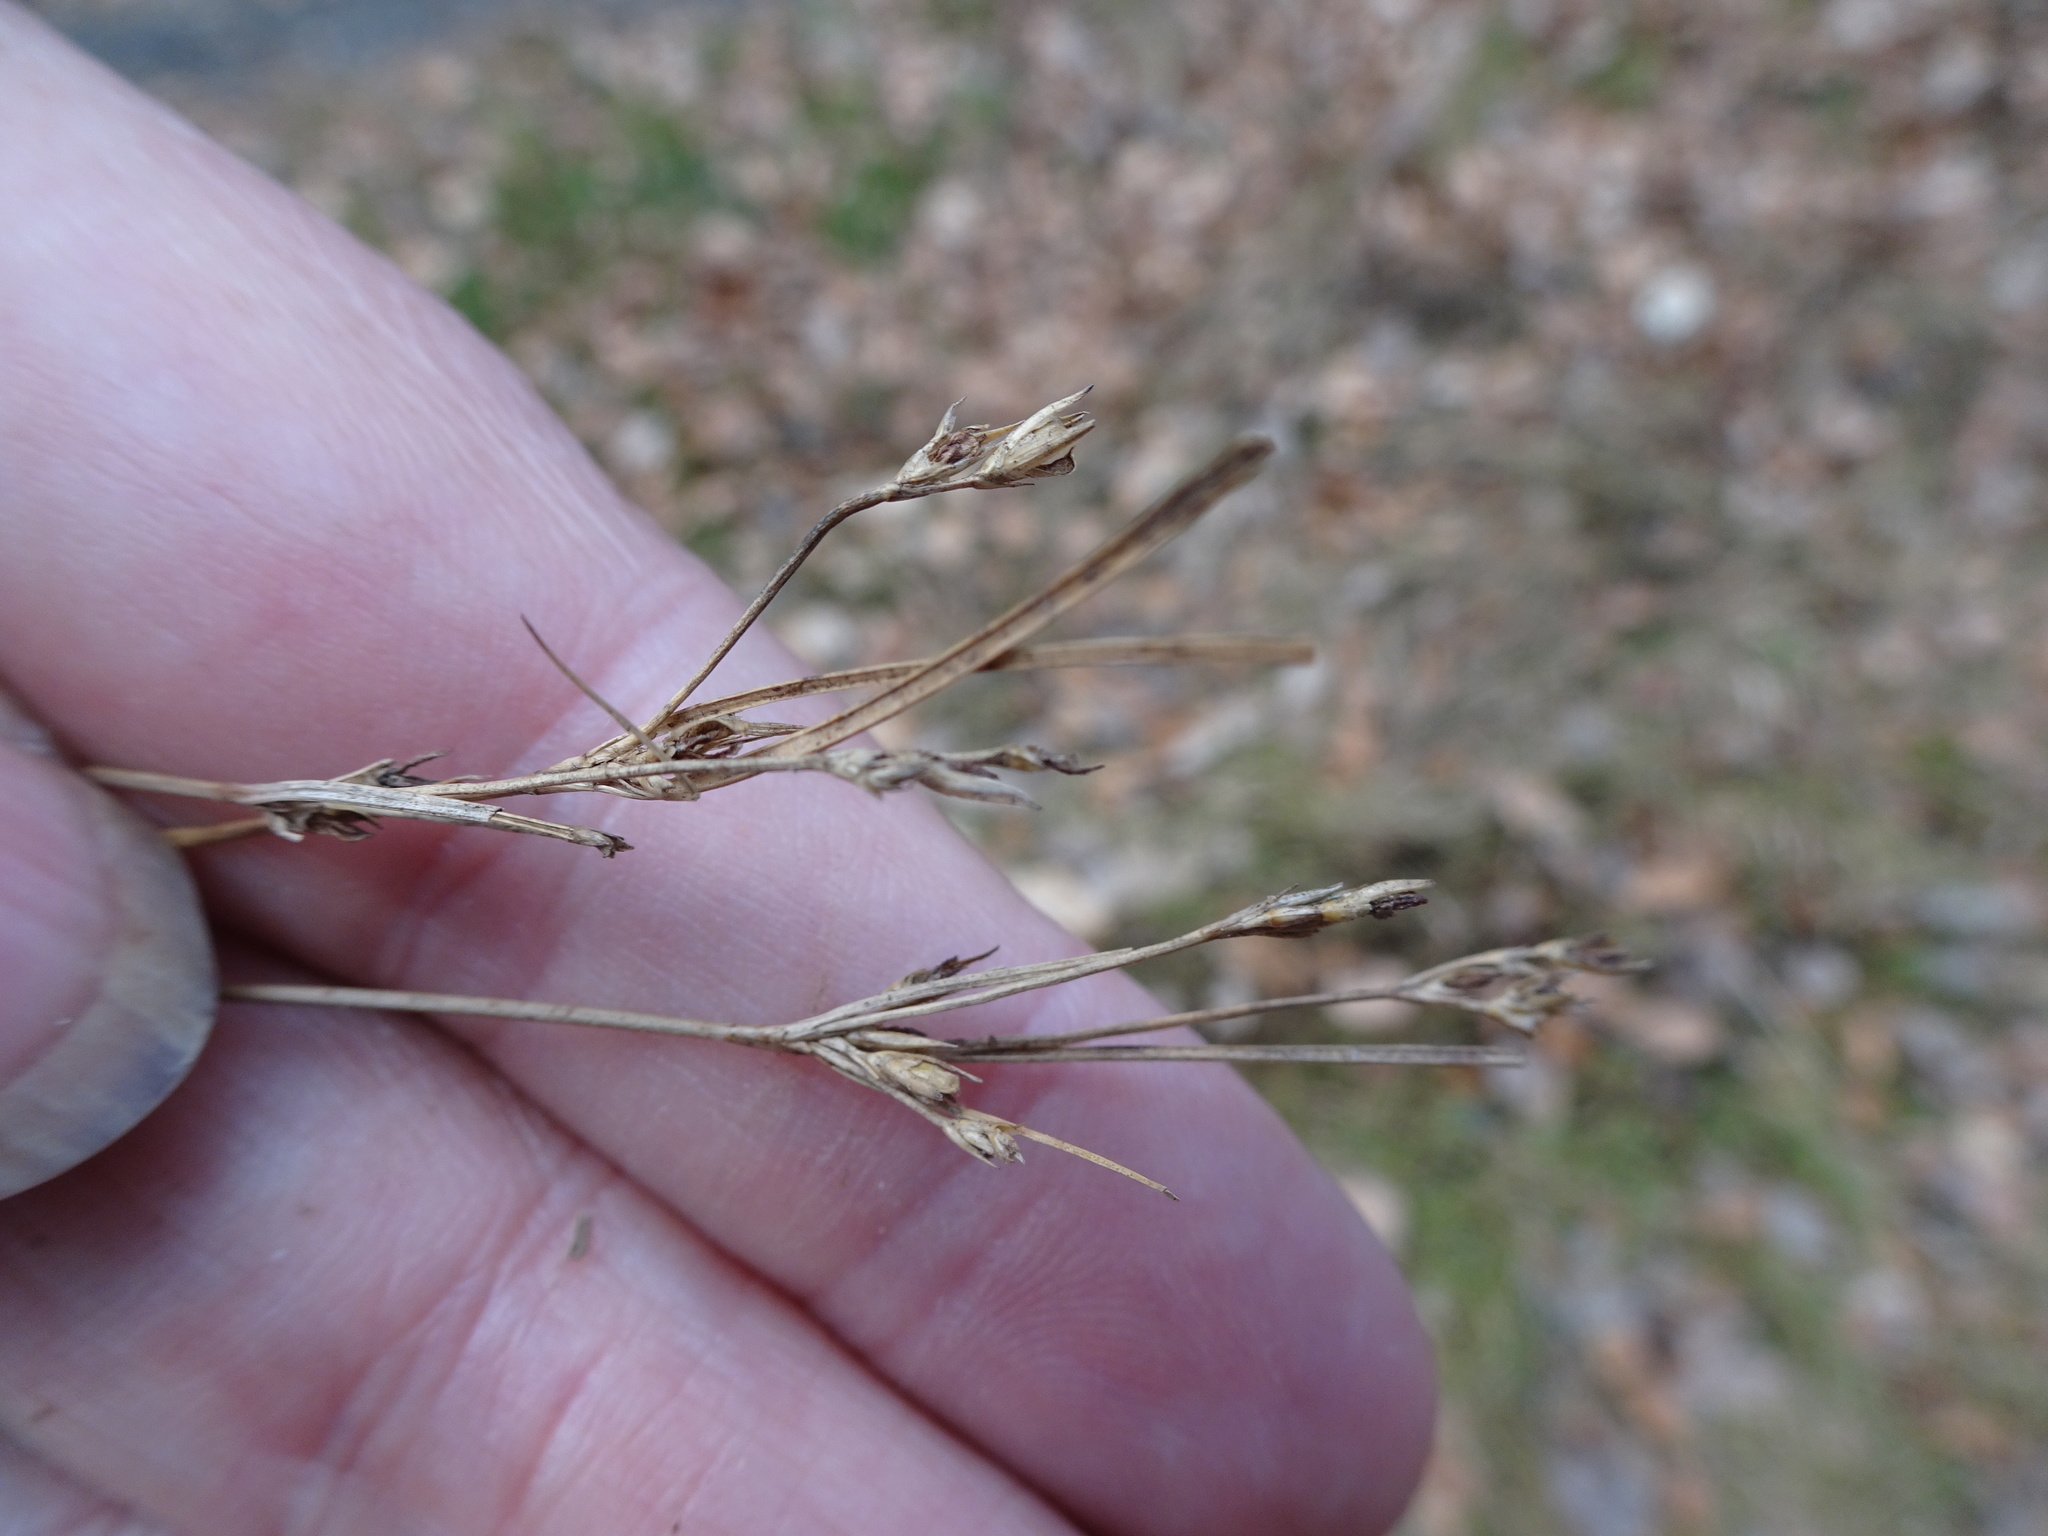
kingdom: Plantae
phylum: Tracheophyta
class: Liliopsida
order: Poales
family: Juncaceae
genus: Juncus
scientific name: Juncus tenuis
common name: Slender rush
